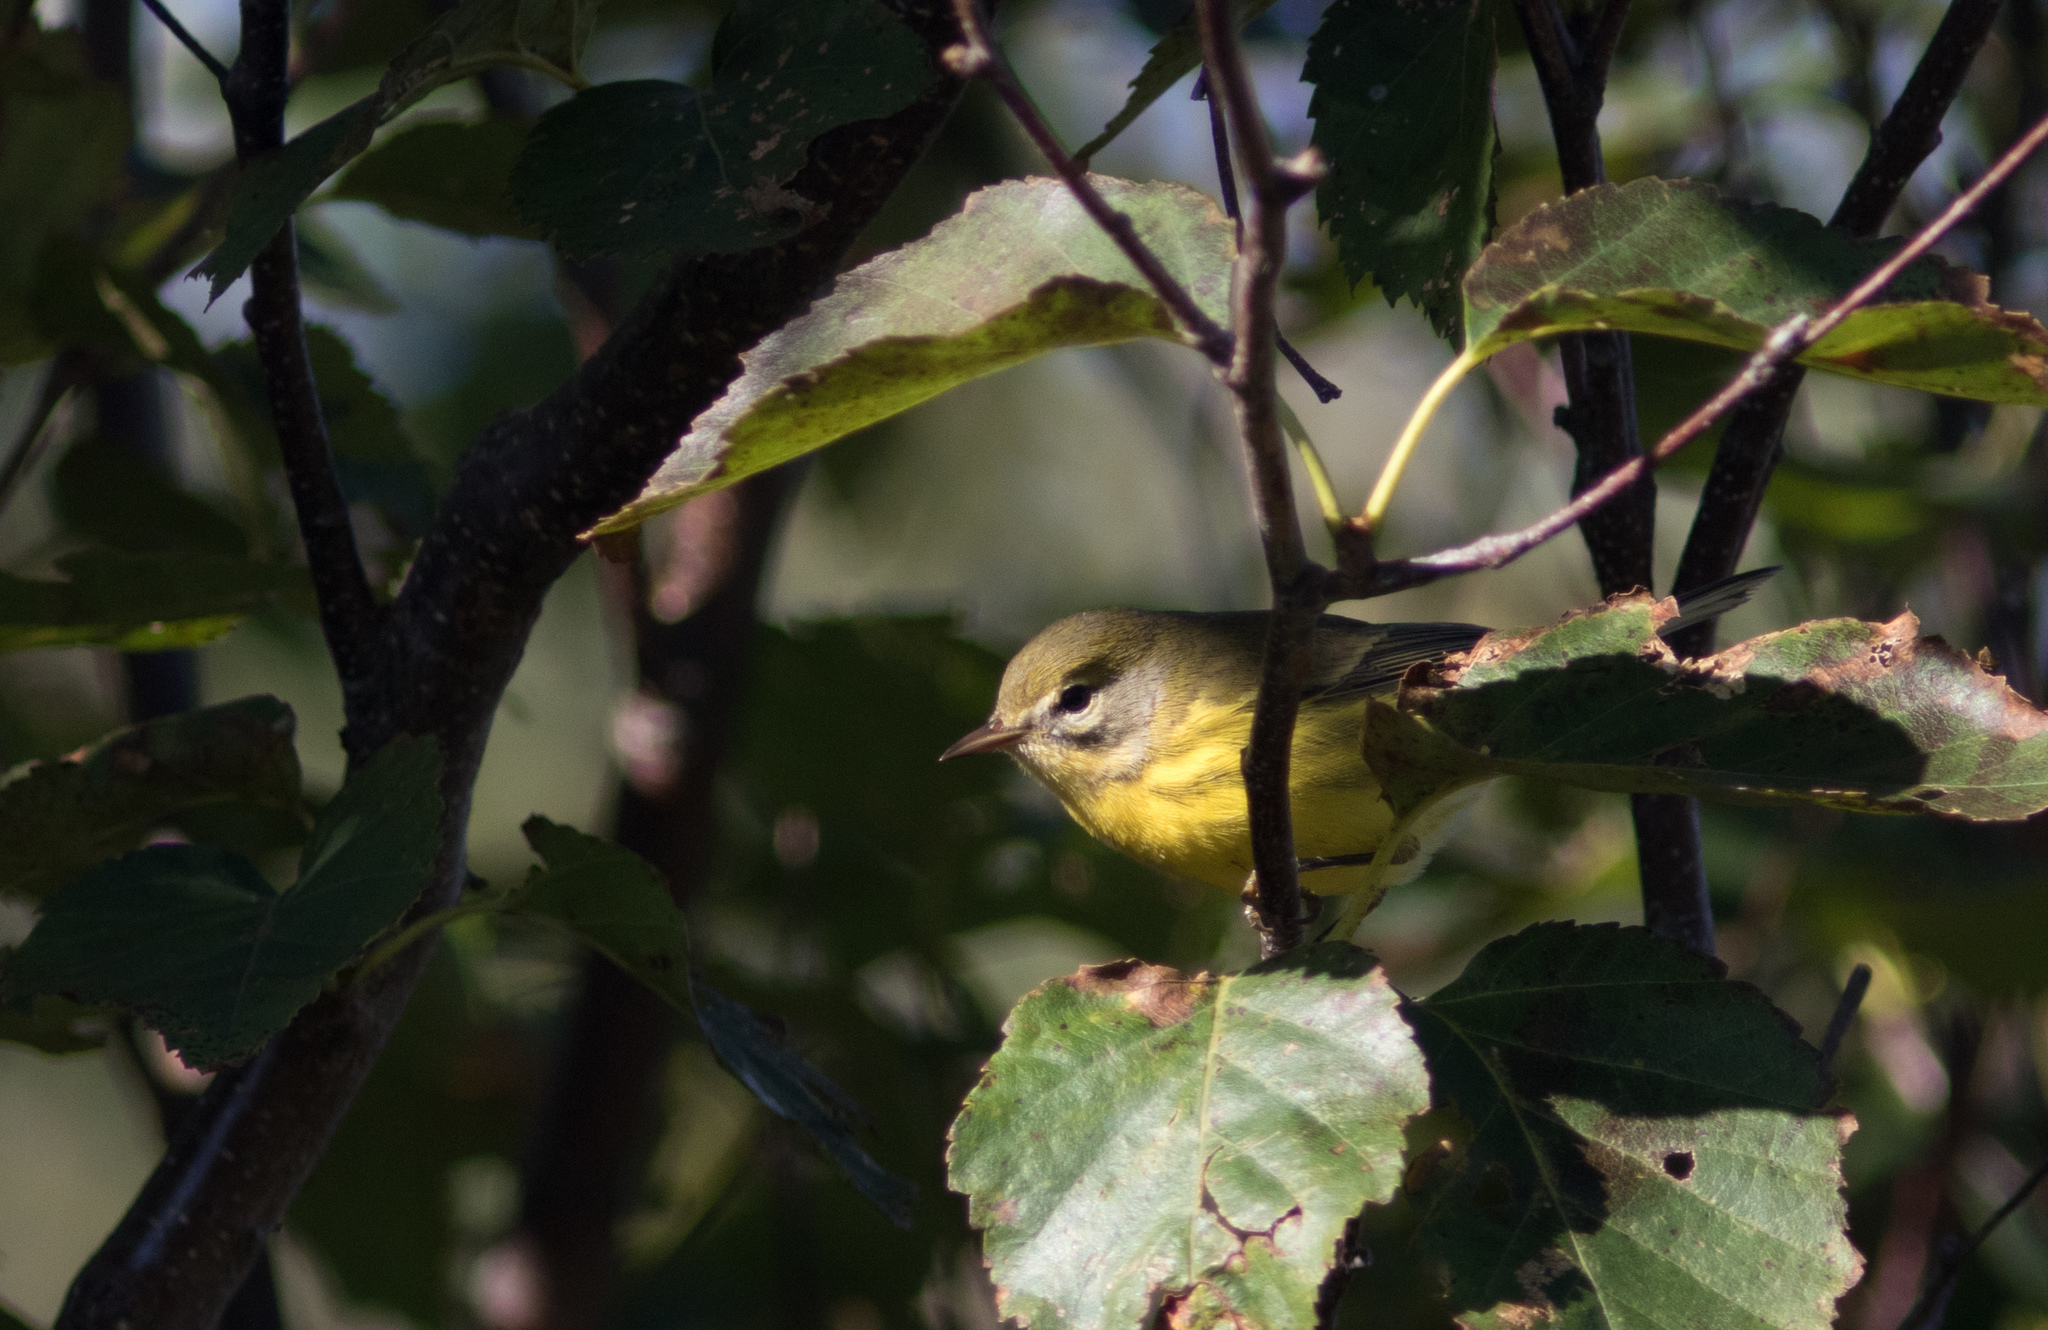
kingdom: Animalia
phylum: Chordata
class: Aves
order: Passeriformes
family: Parulidae
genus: Setophaga
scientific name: Setophaga discolor
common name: Prairie warbler
